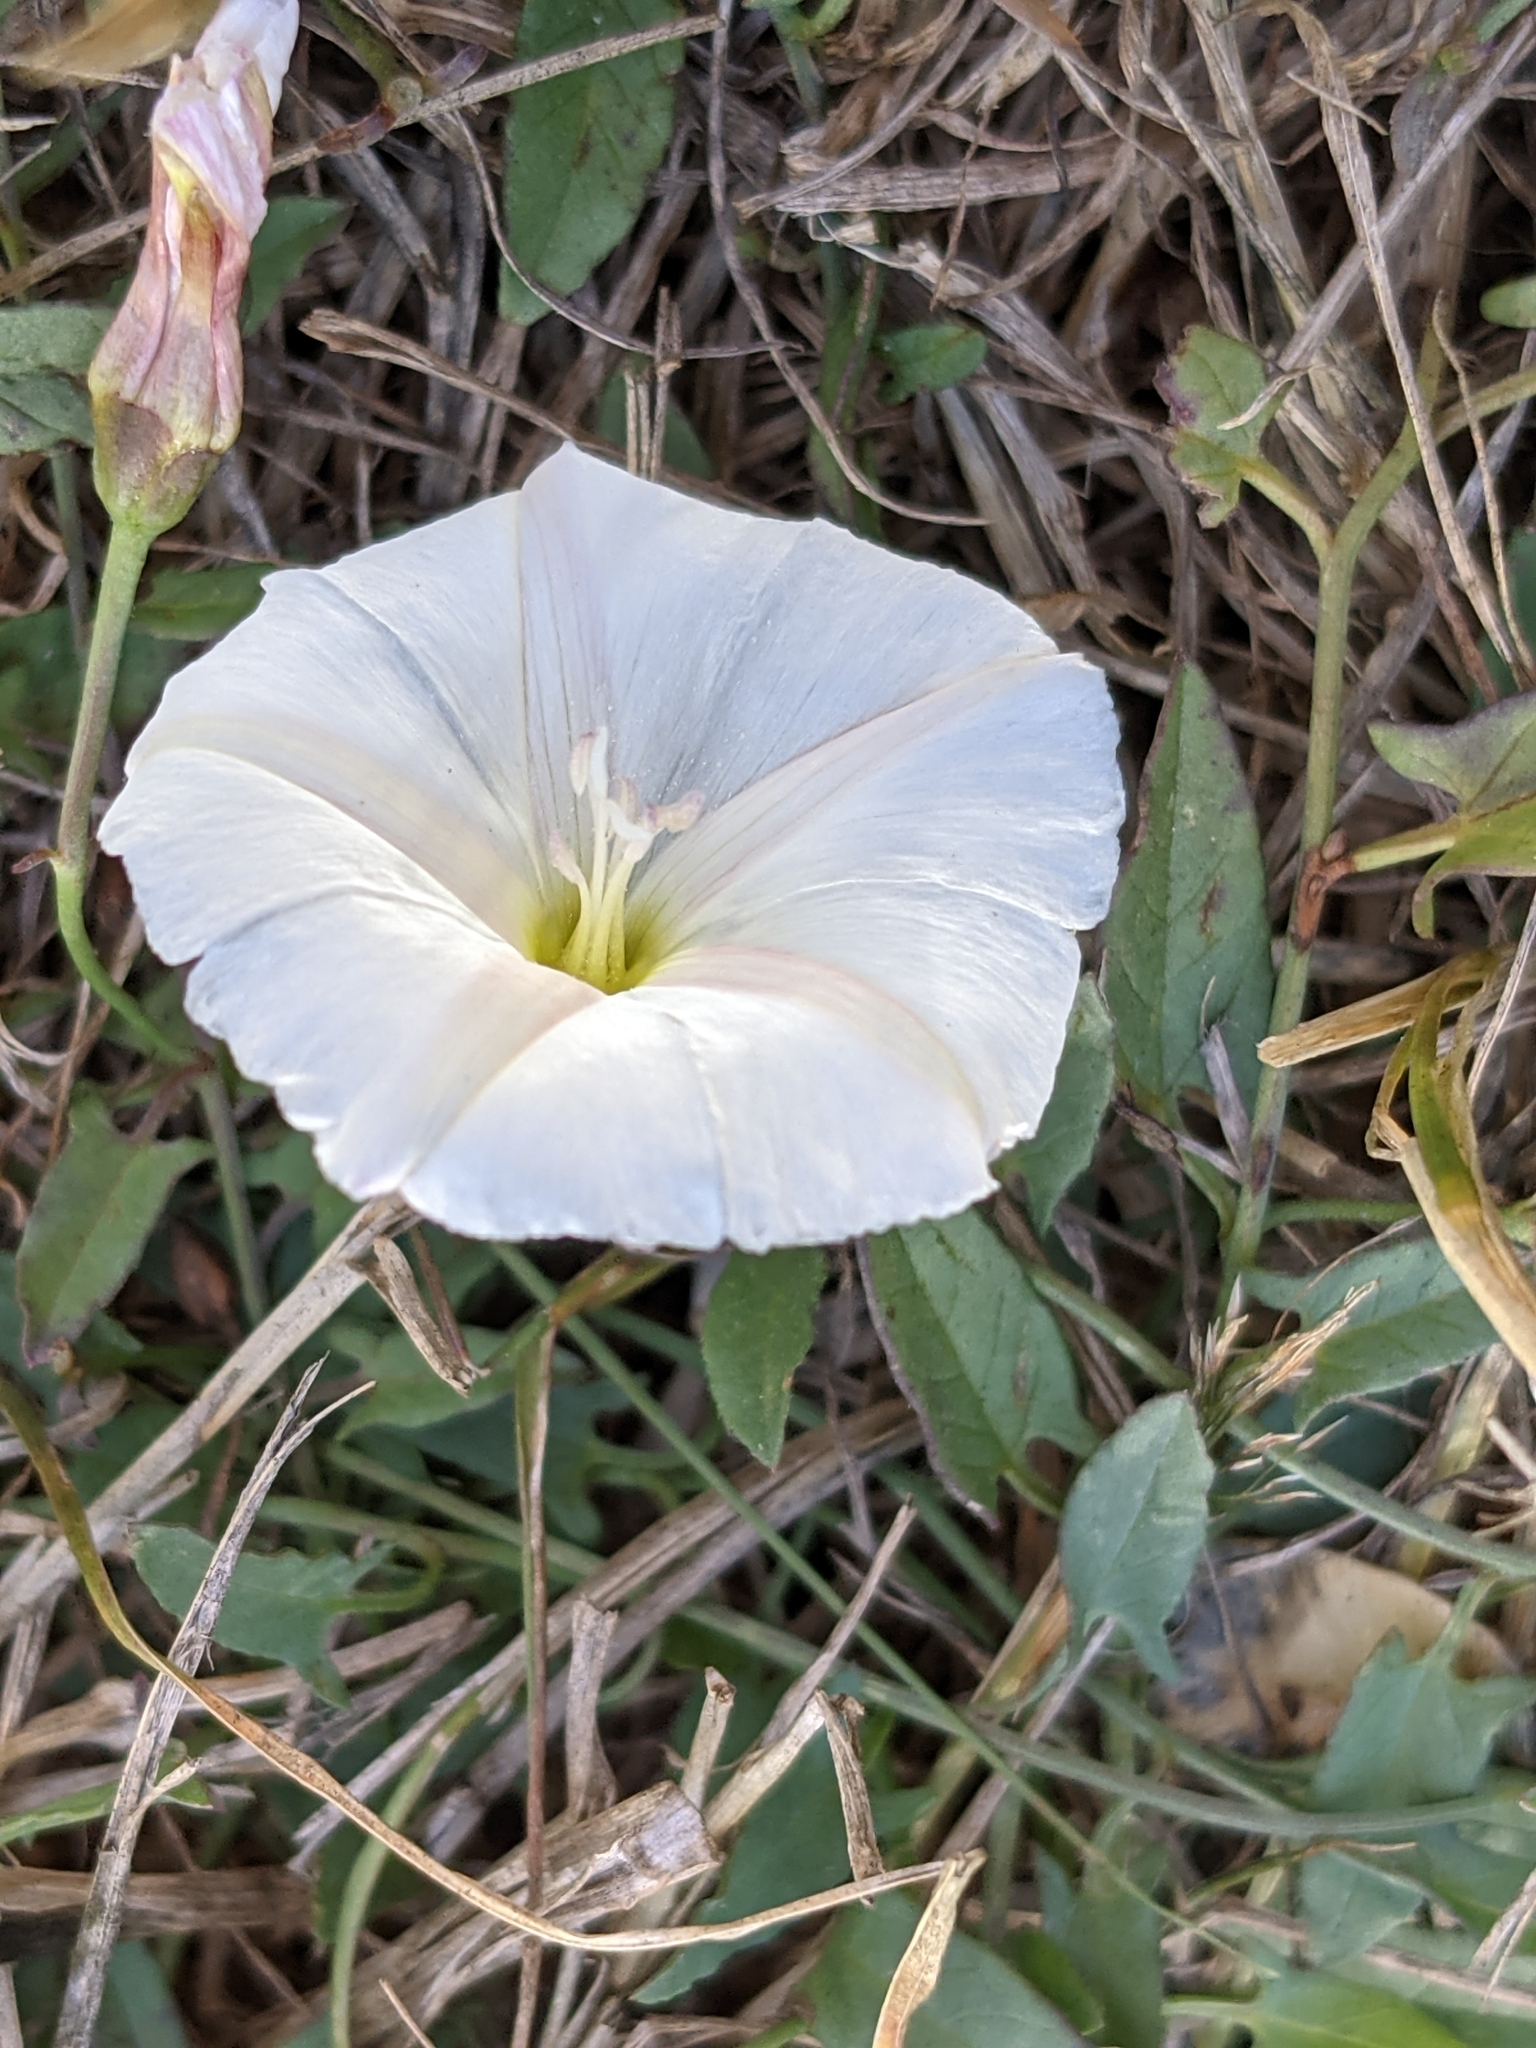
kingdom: Plantae
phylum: Tracheophyta
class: Magnoliopsida
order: Solanales
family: Convolvulaceae
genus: Convolvulus
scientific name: Convolvulus arvensis
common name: Field bindweed
